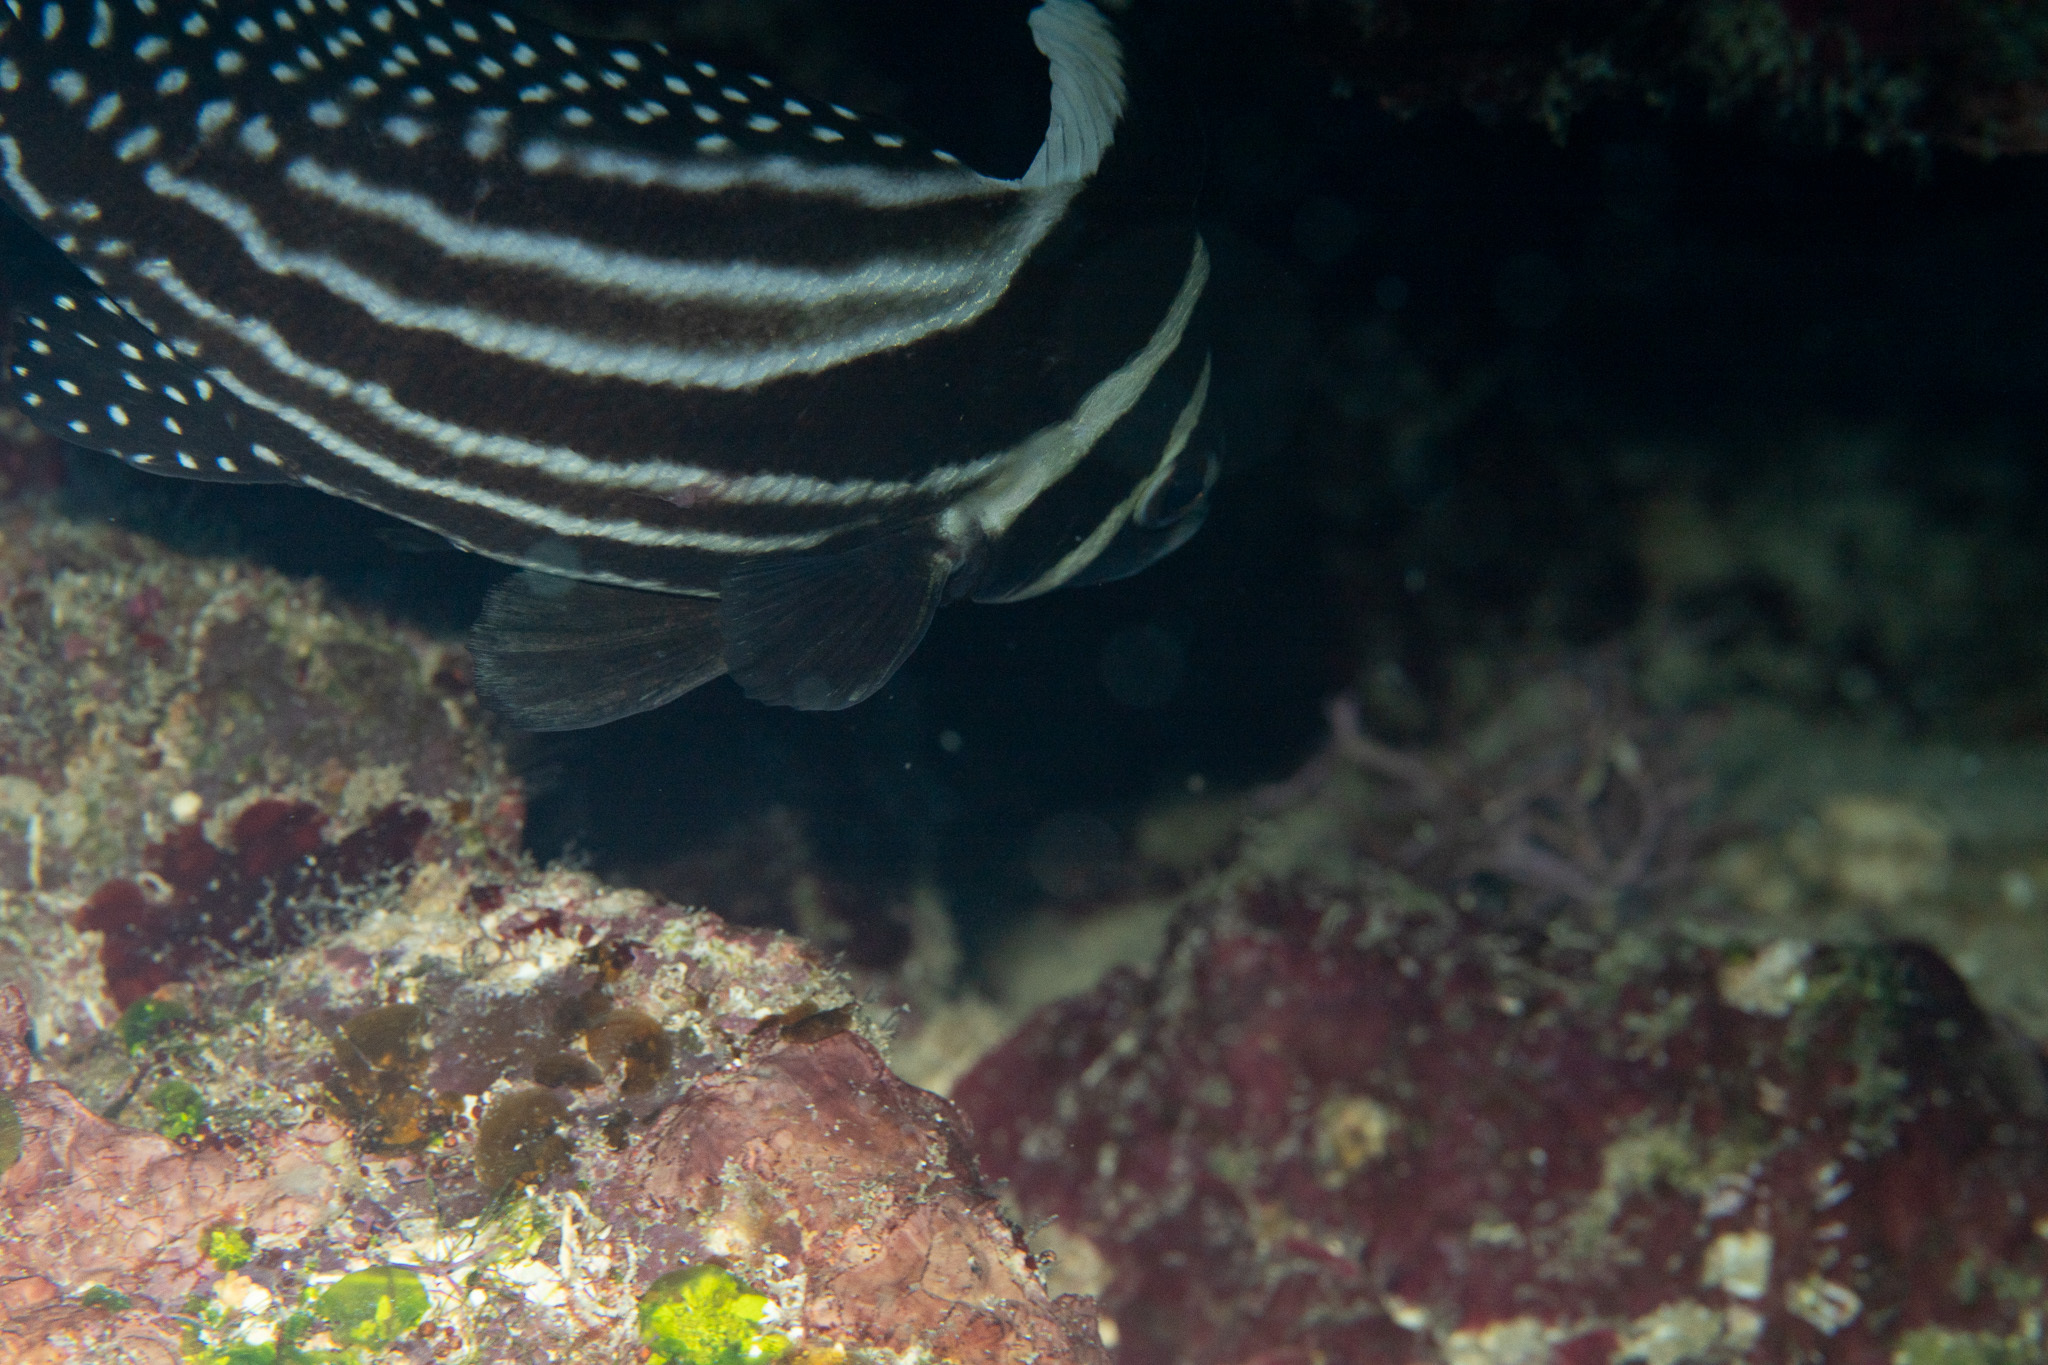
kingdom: Animalia
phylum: Chordata
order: Perciformes
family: Sciaenidae
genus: Equetus
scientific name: Equetus punctatus
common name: Spotted drum
